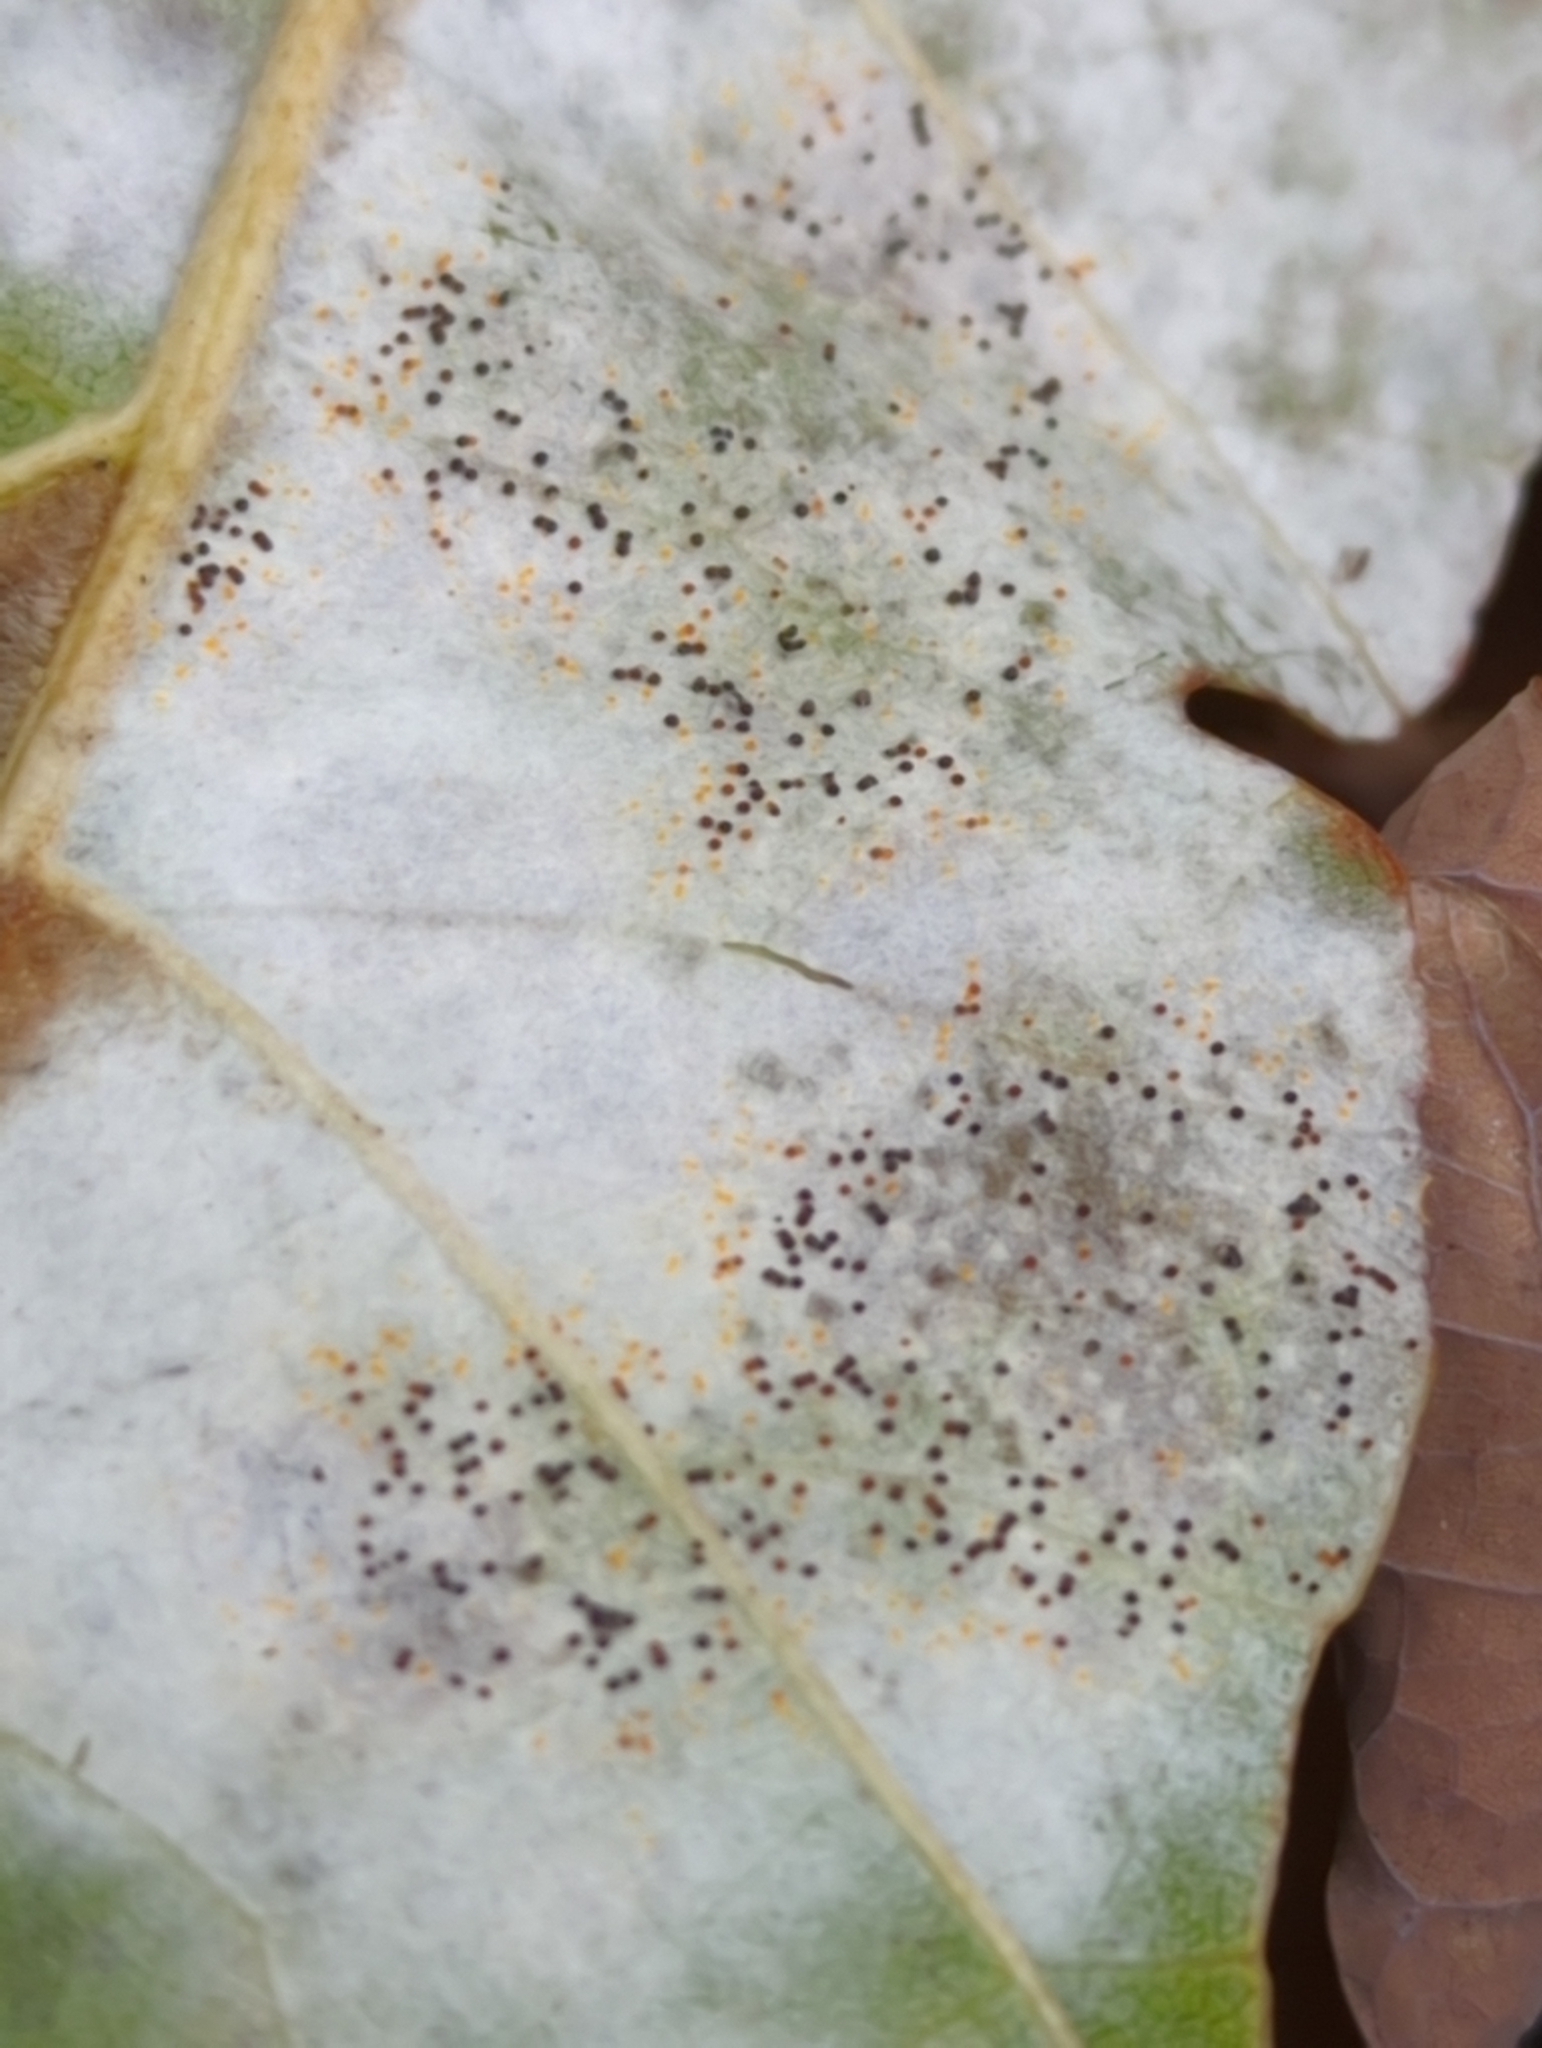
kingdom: Fungi
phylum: Ascomycota
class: Leotiomycetes
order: Helotiales
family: Erysiphaceae
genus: Erysiphe
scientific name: Erysiphe alphitoides
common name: Oak mildew
